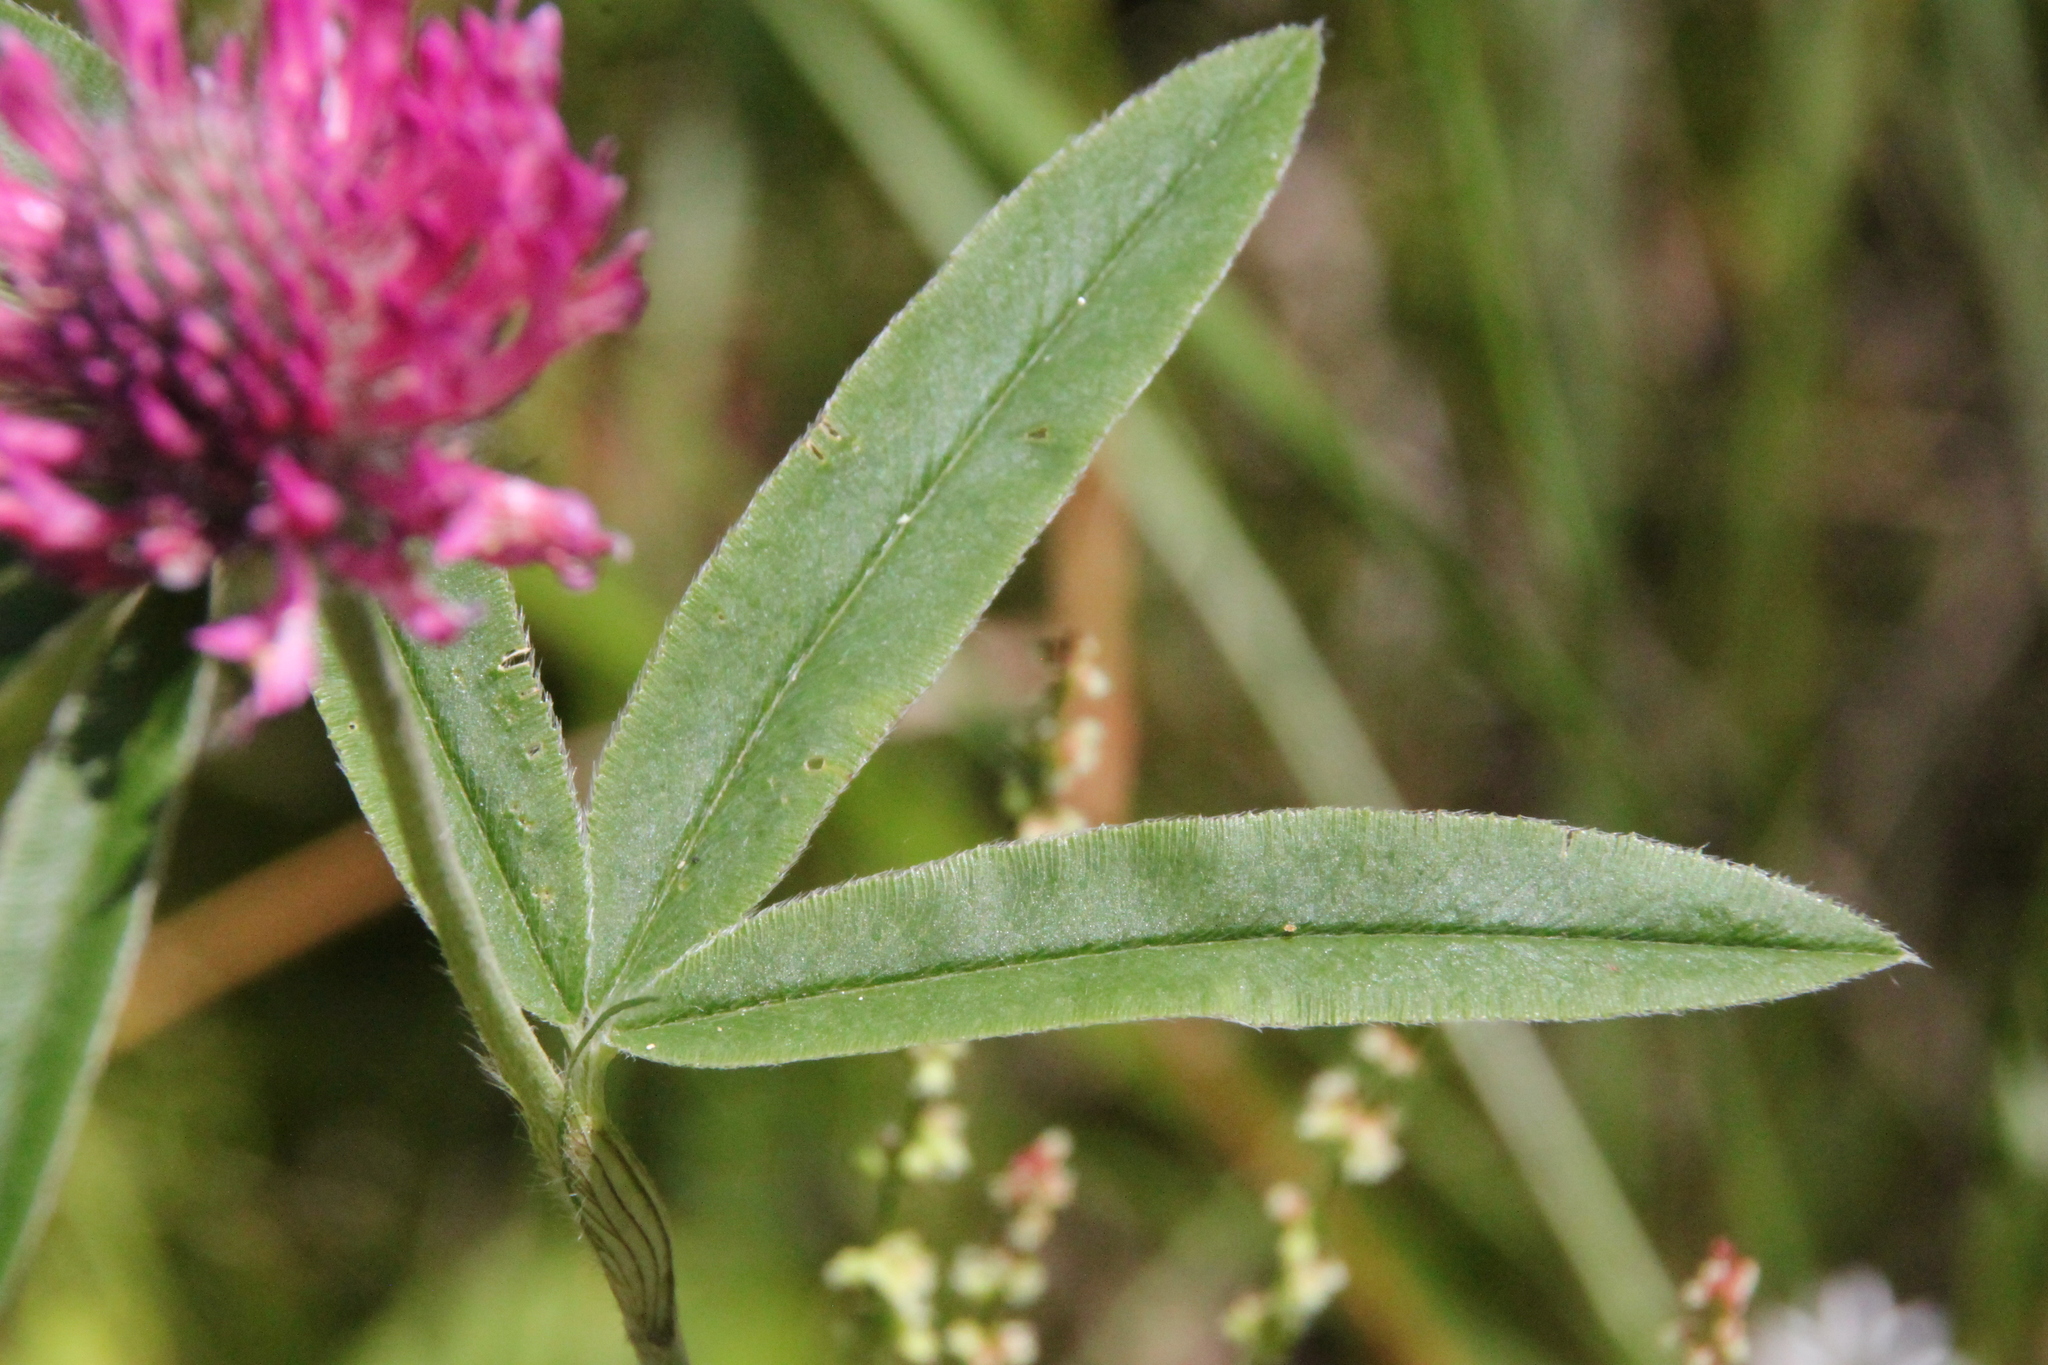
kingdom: Plantae
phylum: Tracheophyta
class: Magnoliopsida
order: Fabales
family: Fabaceae
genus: Trifolium
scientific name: Trifolium alpestre
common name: Owl-head clover
